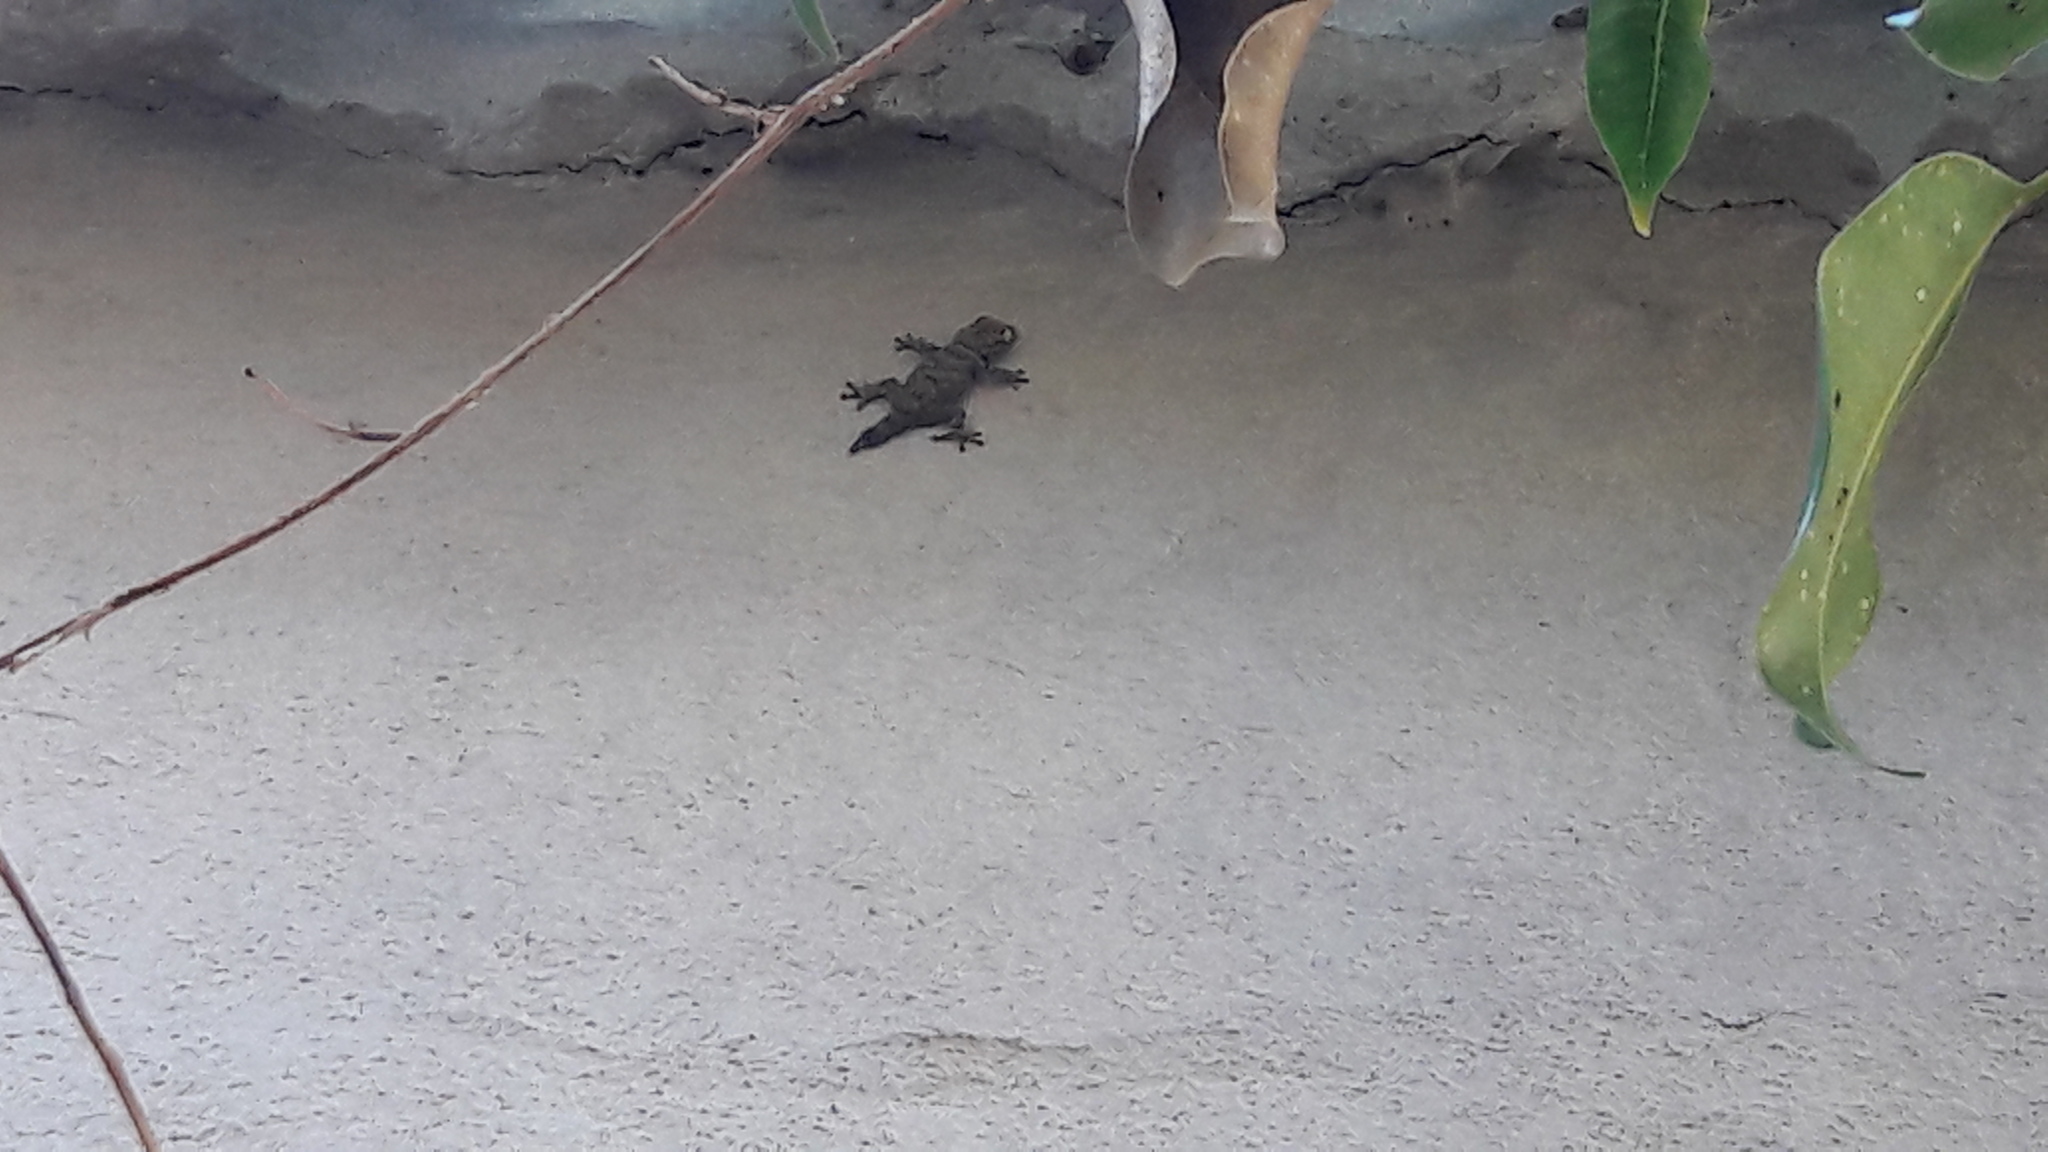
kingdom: Animalia
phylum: Chordata
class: Squamata
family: Phyllodactylidae
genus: Tarentola
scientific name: Tarentola mauritanica
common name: Moorish gecko
